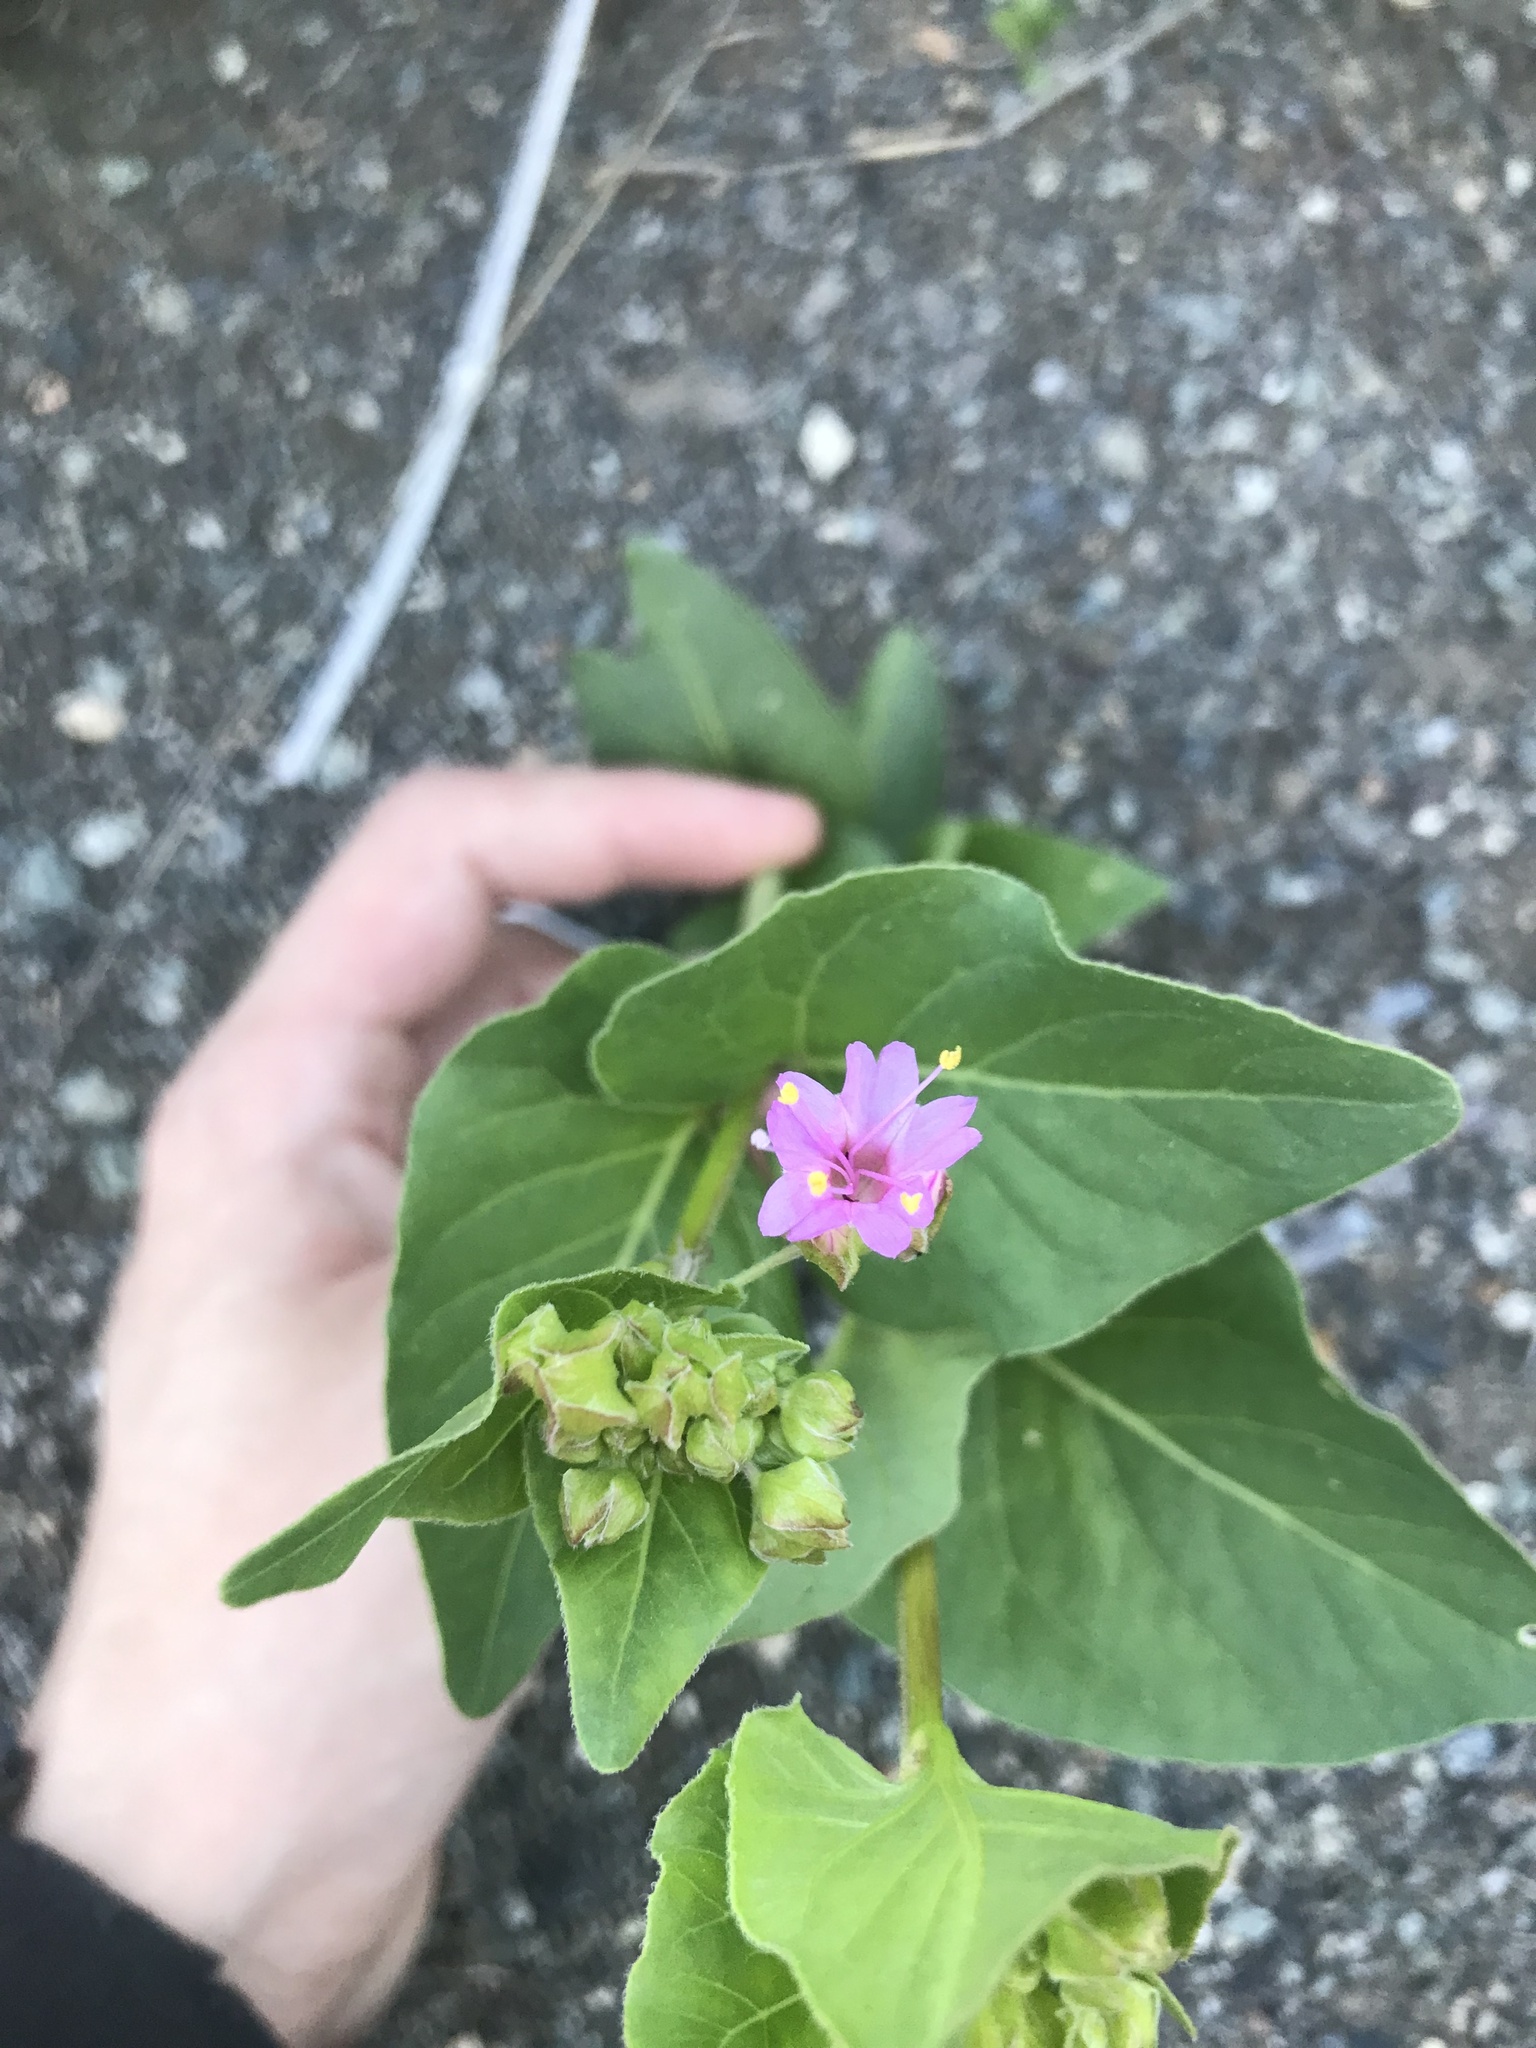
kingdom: Plantae
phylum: Tracheophyta
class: Magnoliopsida
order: Caryophyllales
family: Nyctaginaceae
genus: Mirabilis
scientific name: Mirabilis nyctaginea
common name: Umbrella wort
